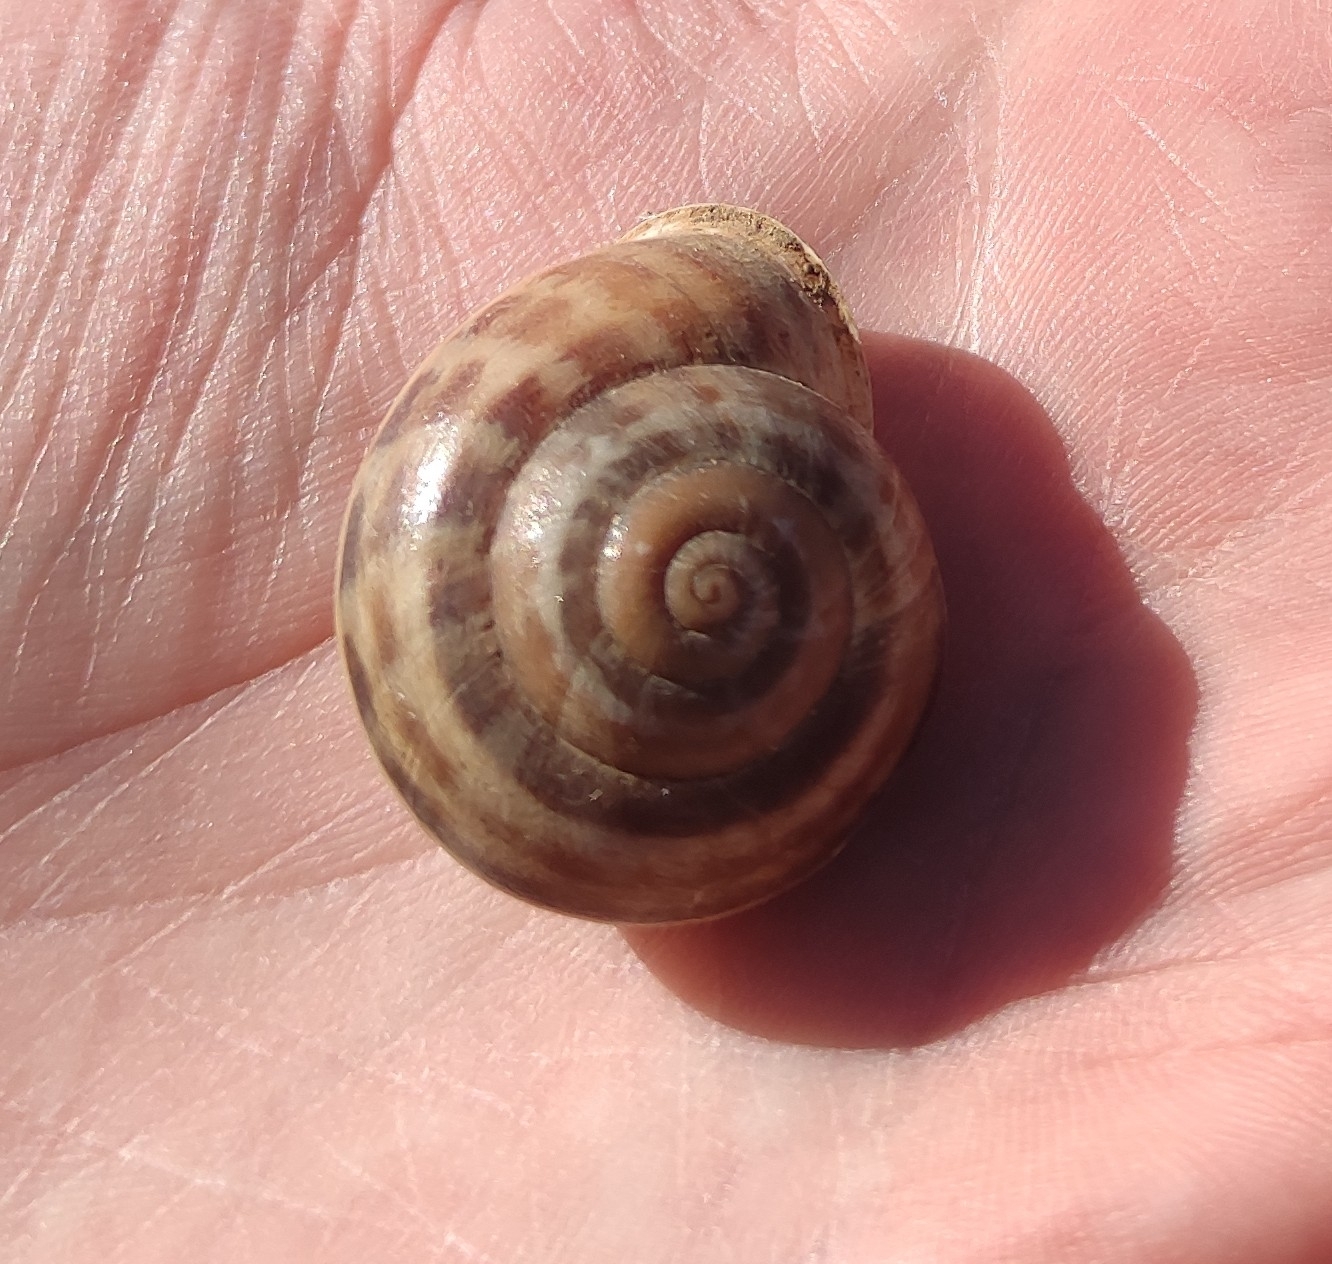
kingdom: Animalia
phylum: Mollusca
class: Gastropoda
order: Stylommatophora
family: Helicidae
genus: Eobania
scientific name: Eobania vermiculata
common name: Chocolateband snail
